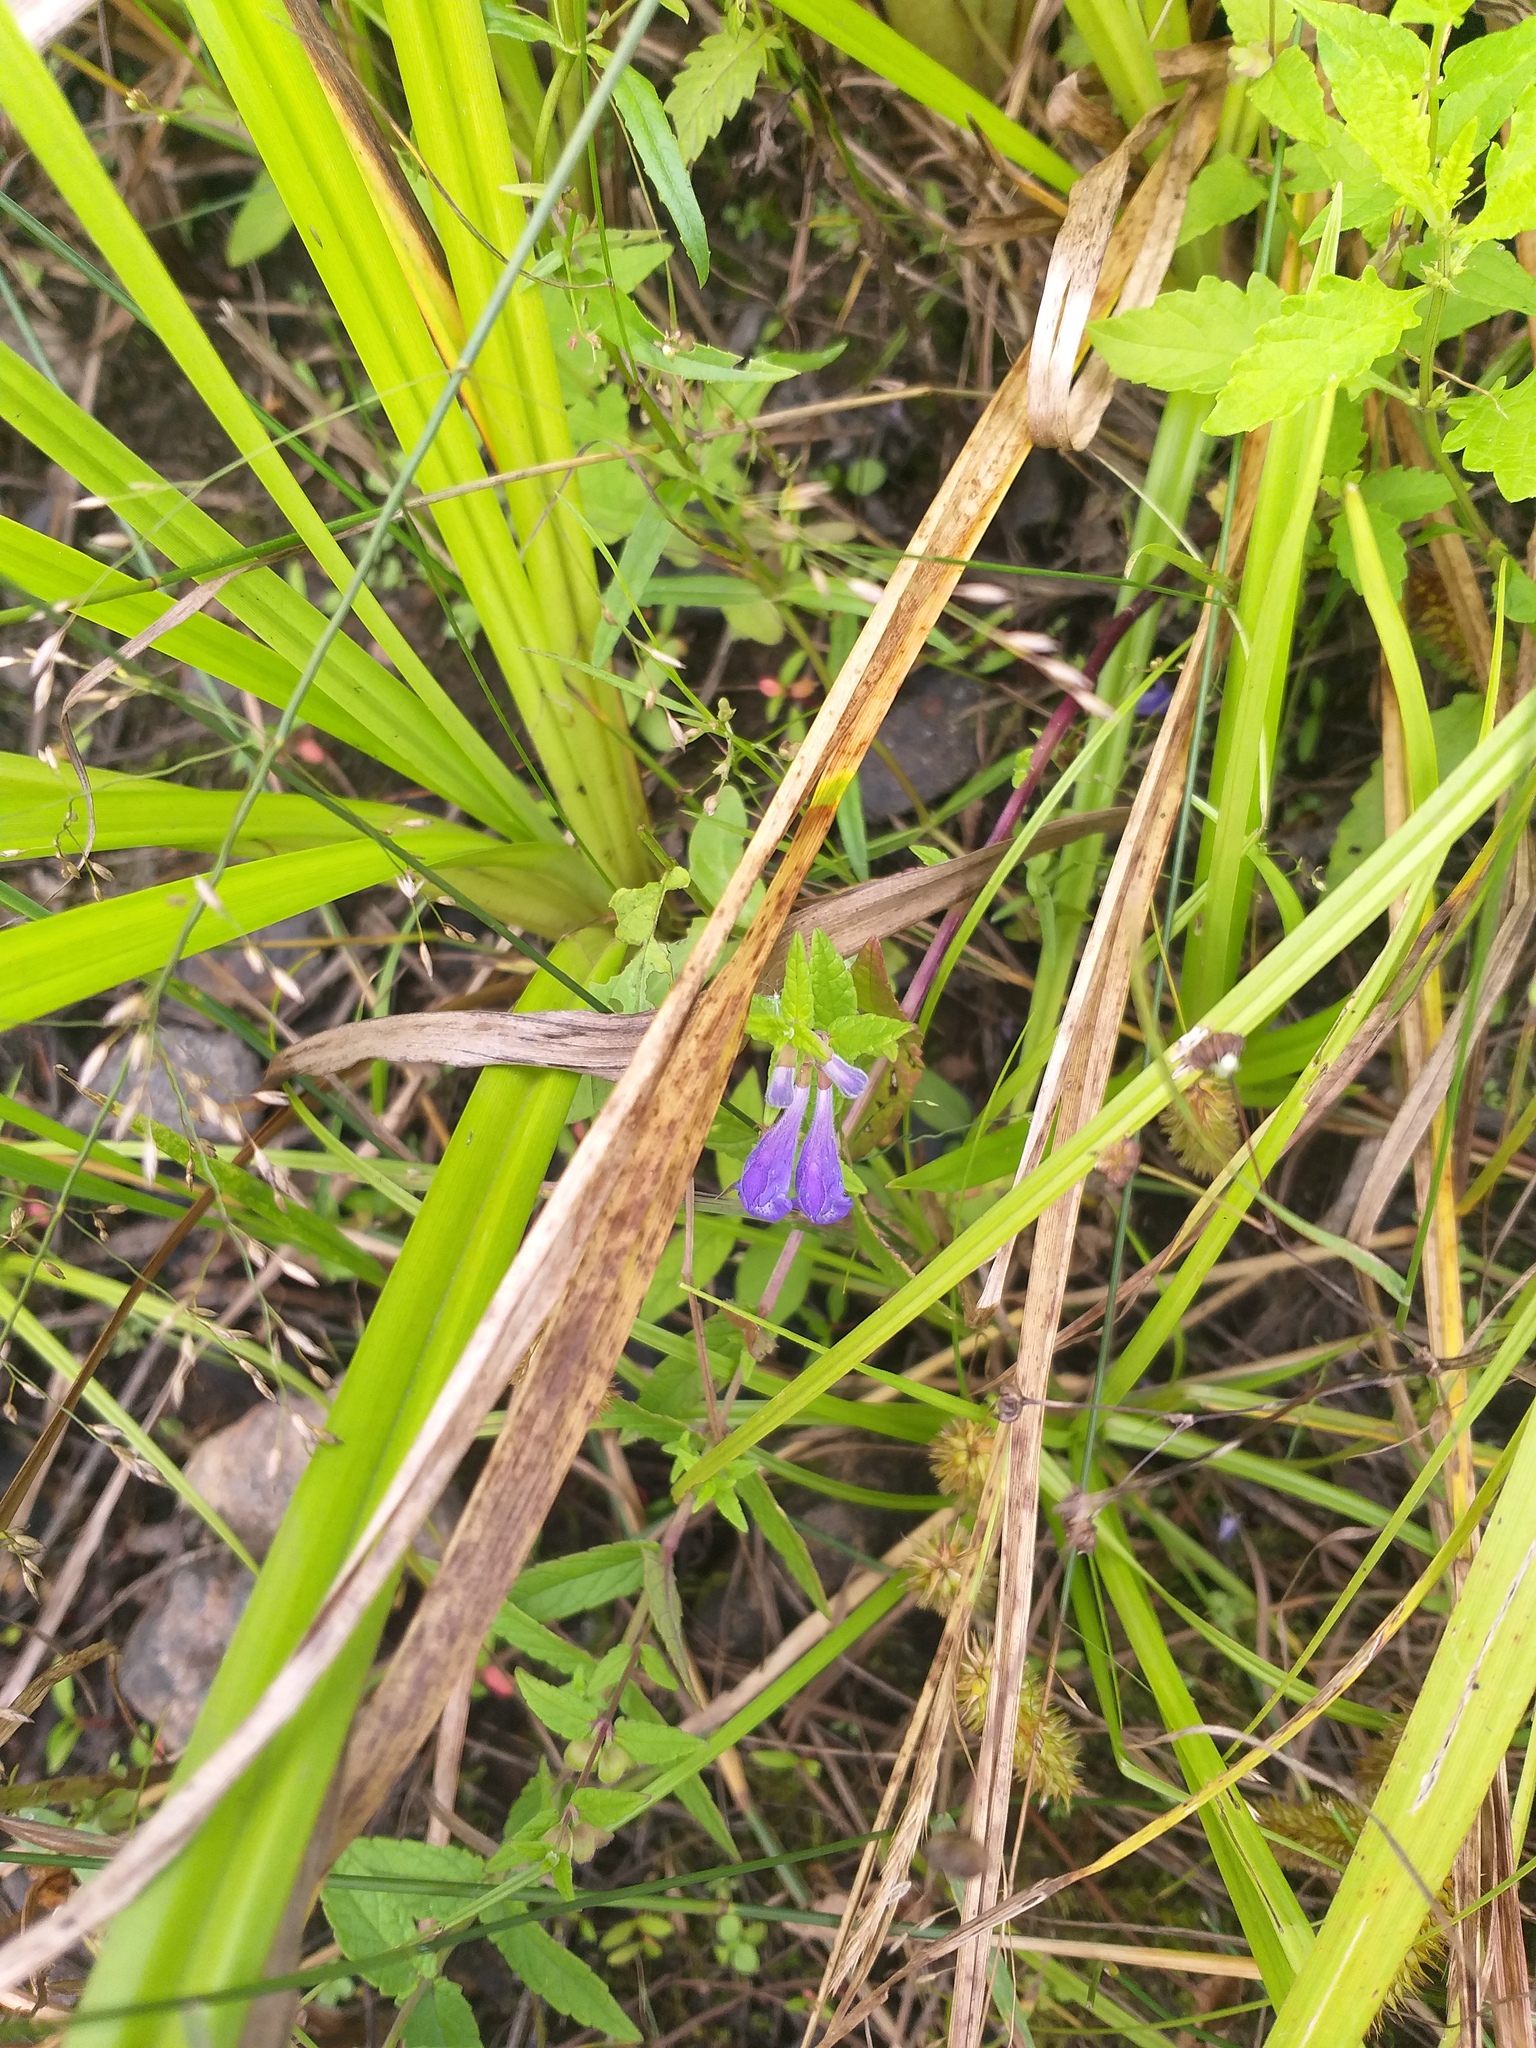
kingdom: Plantae
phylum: Tracheophyta
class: Magnoliopsida
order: Lamiales
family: Lamiaceae
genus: Scutellaria
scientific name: Scutellaria galericulata
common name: Skullcap
